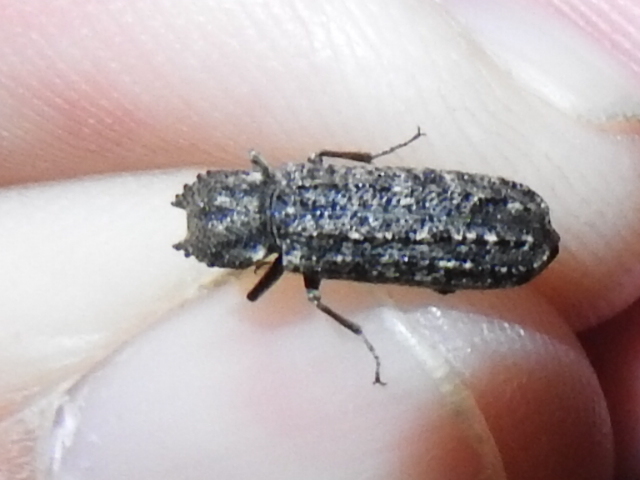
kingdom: Animalia
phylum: Arthropoda
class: Insecta
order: Coleoptera
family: Bostrichidae
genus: Lichenophanes
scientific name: Lichenophanes bicornis
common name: Two-horned powder-post beetle
